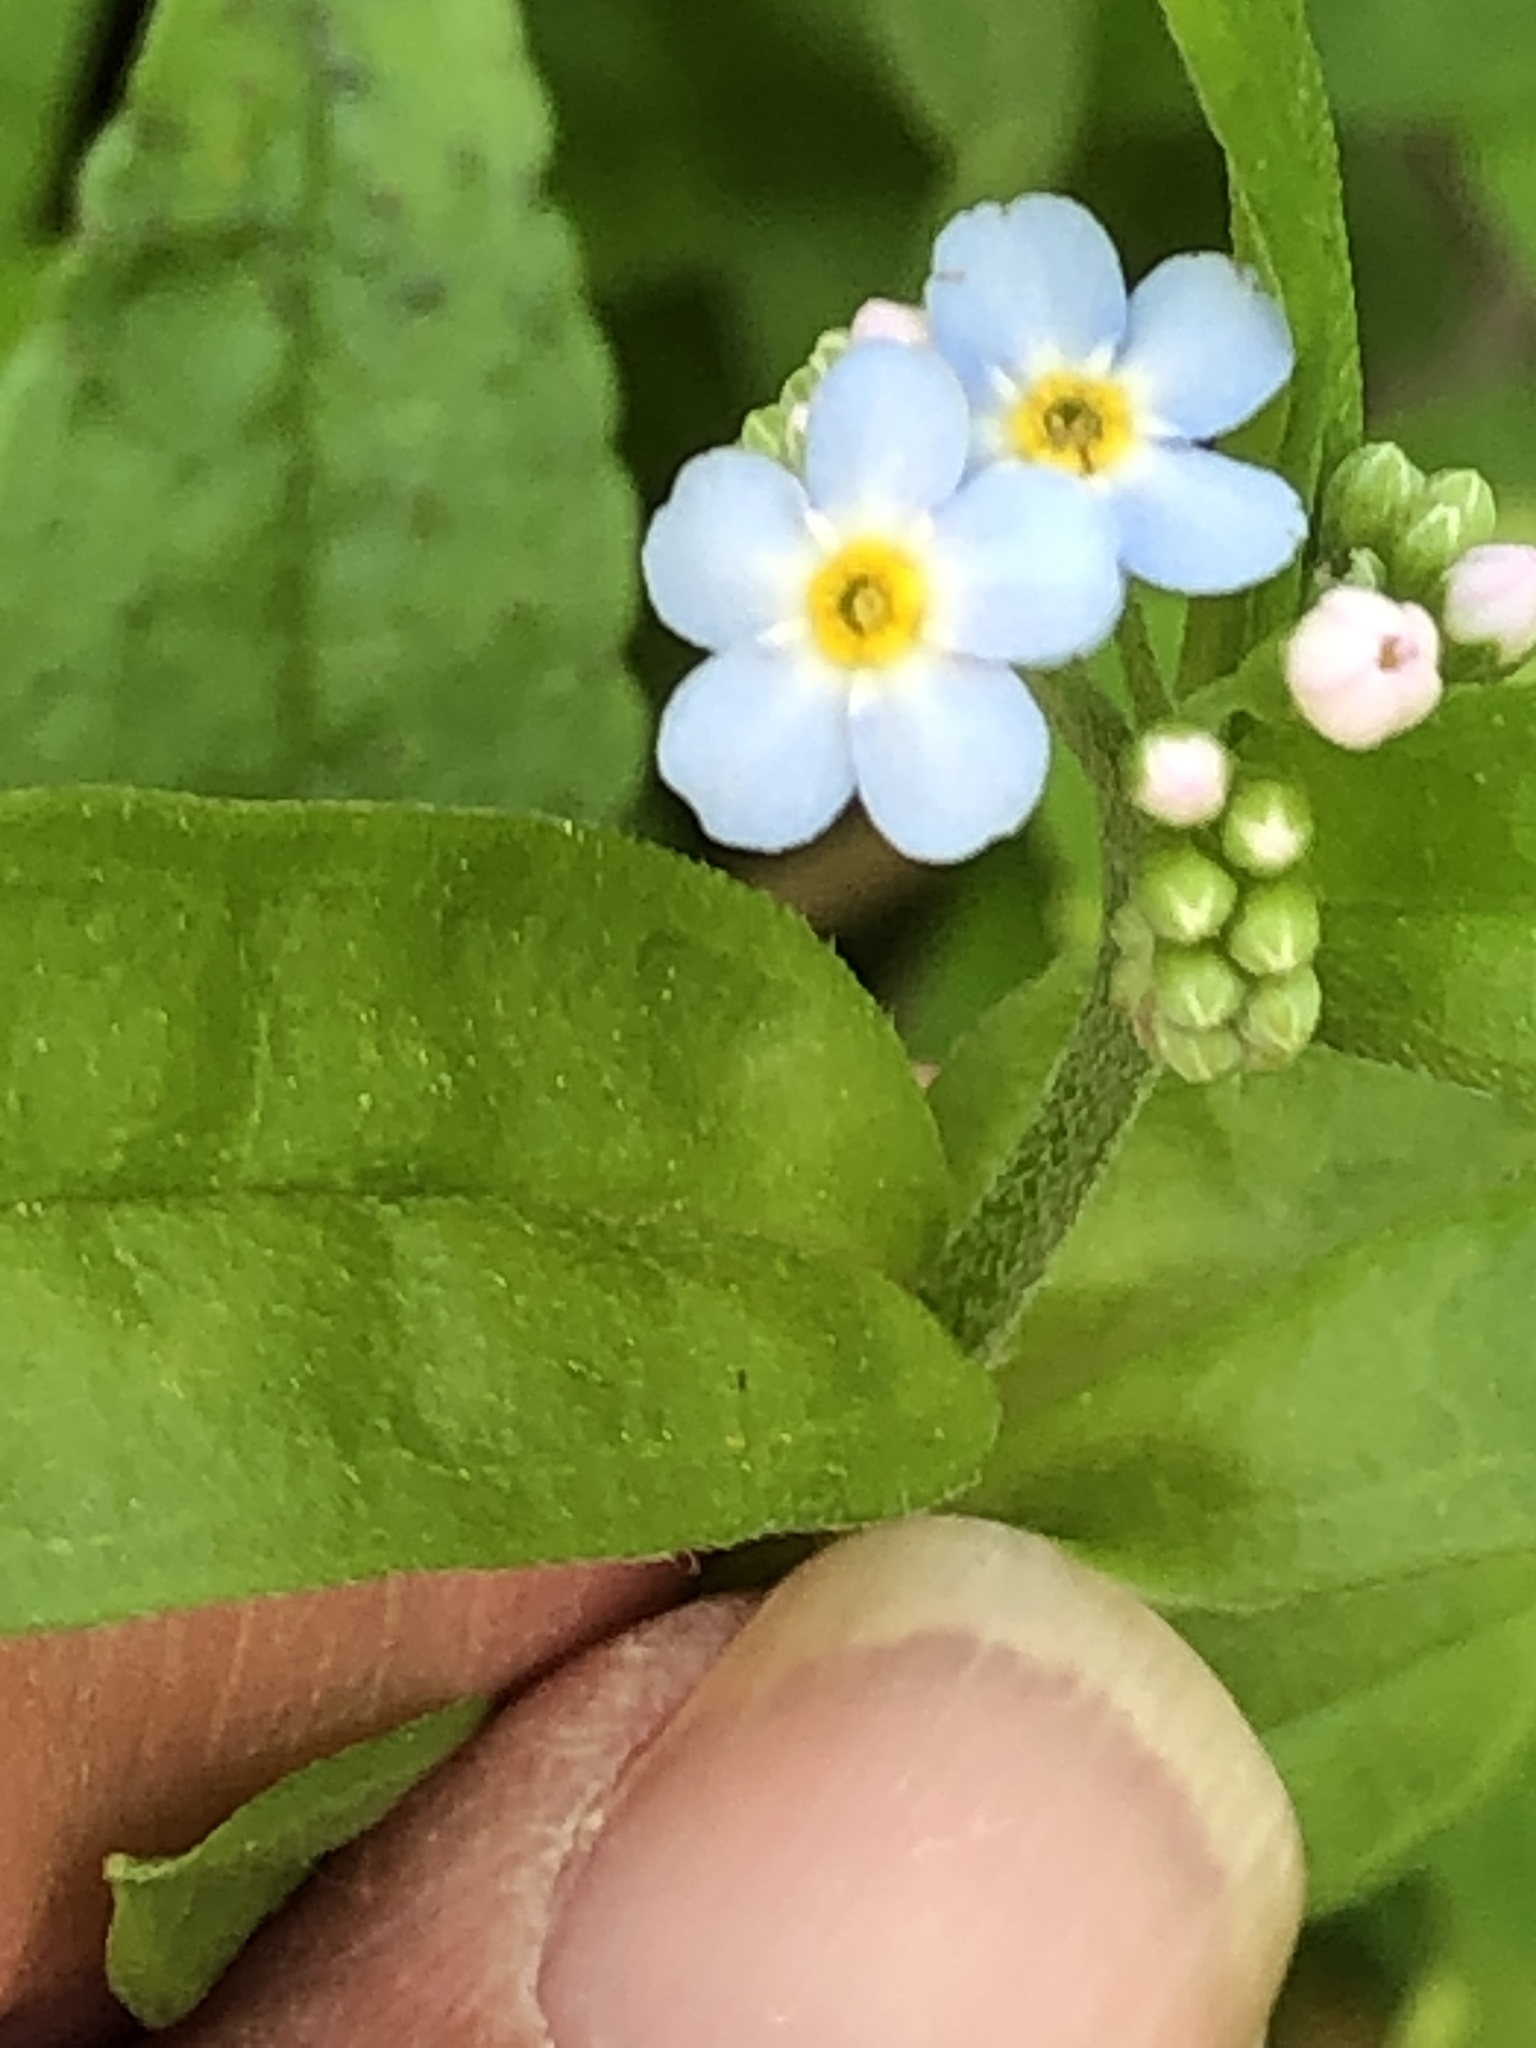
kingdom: Plantae
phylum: Tracheophyta
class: Magnoliopsida
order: Boraginales
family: Boraginaceae
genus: Myosotis
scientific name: Myosotis scorpioides
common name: Water forget-me-not
